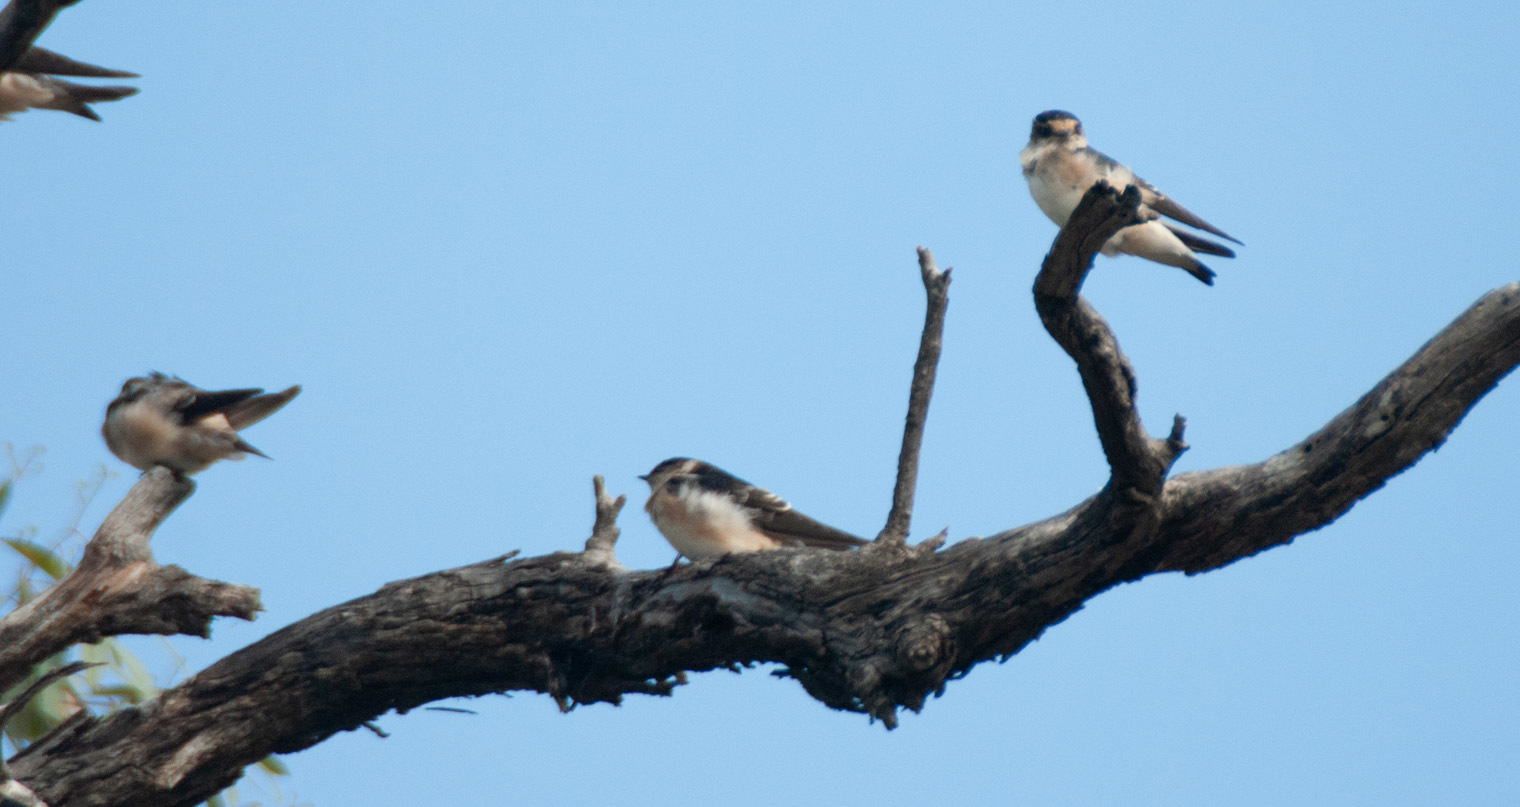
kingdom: Animalia
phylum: Chordata
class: Aves
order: Passeriformes
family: Hirundinidae
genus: Petrochelidon
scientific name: Petrochelidon nigricans
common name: Tree martin
